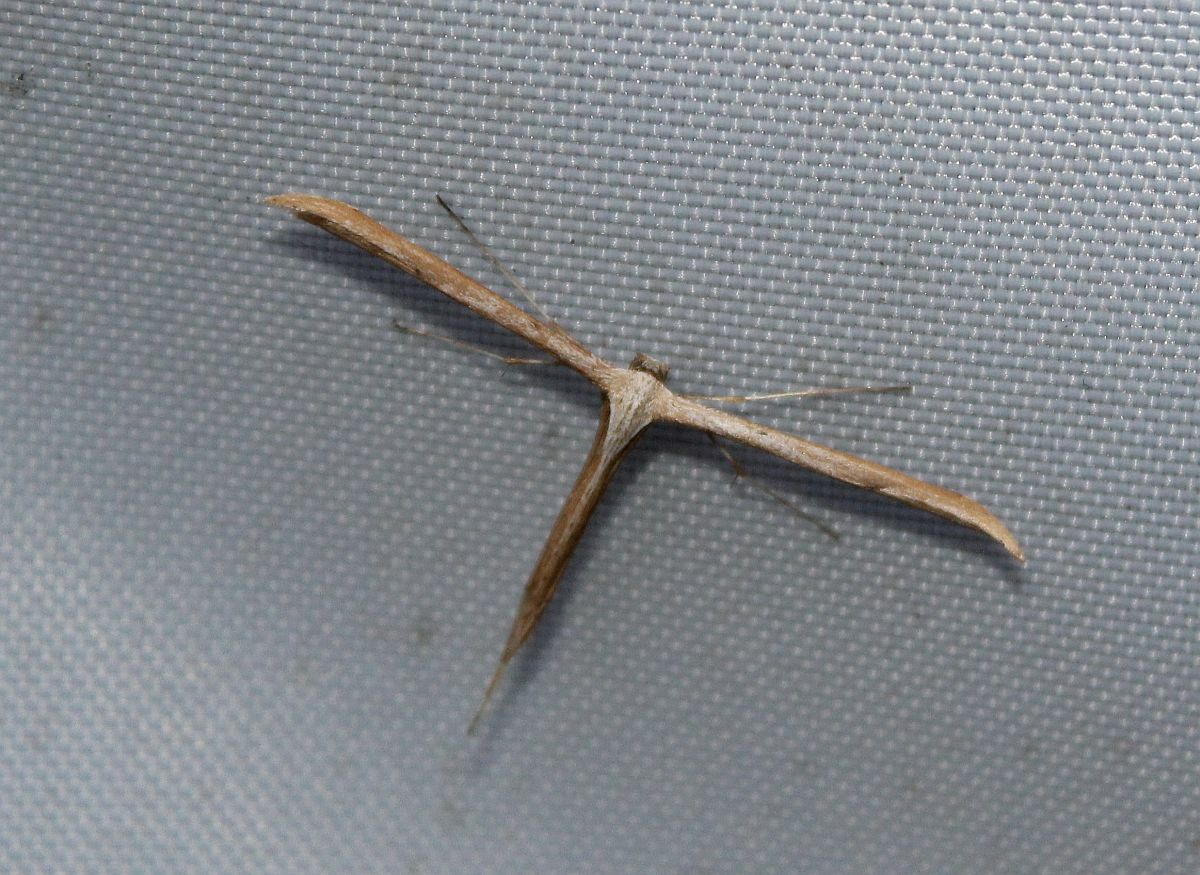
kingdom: Animalia
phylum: Arthropoda
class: Insecta
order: Lepidoptera
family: Pterophoridae
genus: Emmelina
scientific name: Emmelina monodactyla
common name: Common plume
